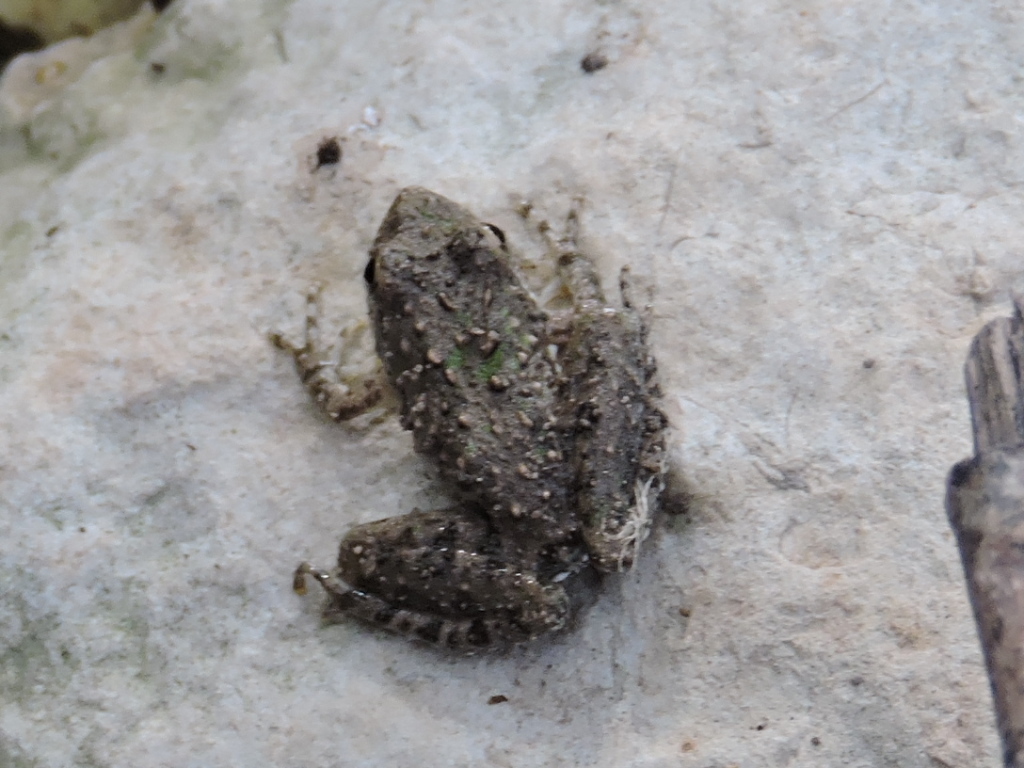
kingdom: Animalia
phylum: Chordata
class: Amphibia
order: Anura
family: Hylidae
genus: Acris
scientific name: Acris blanchardi
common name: Blanchard's cricket frog
